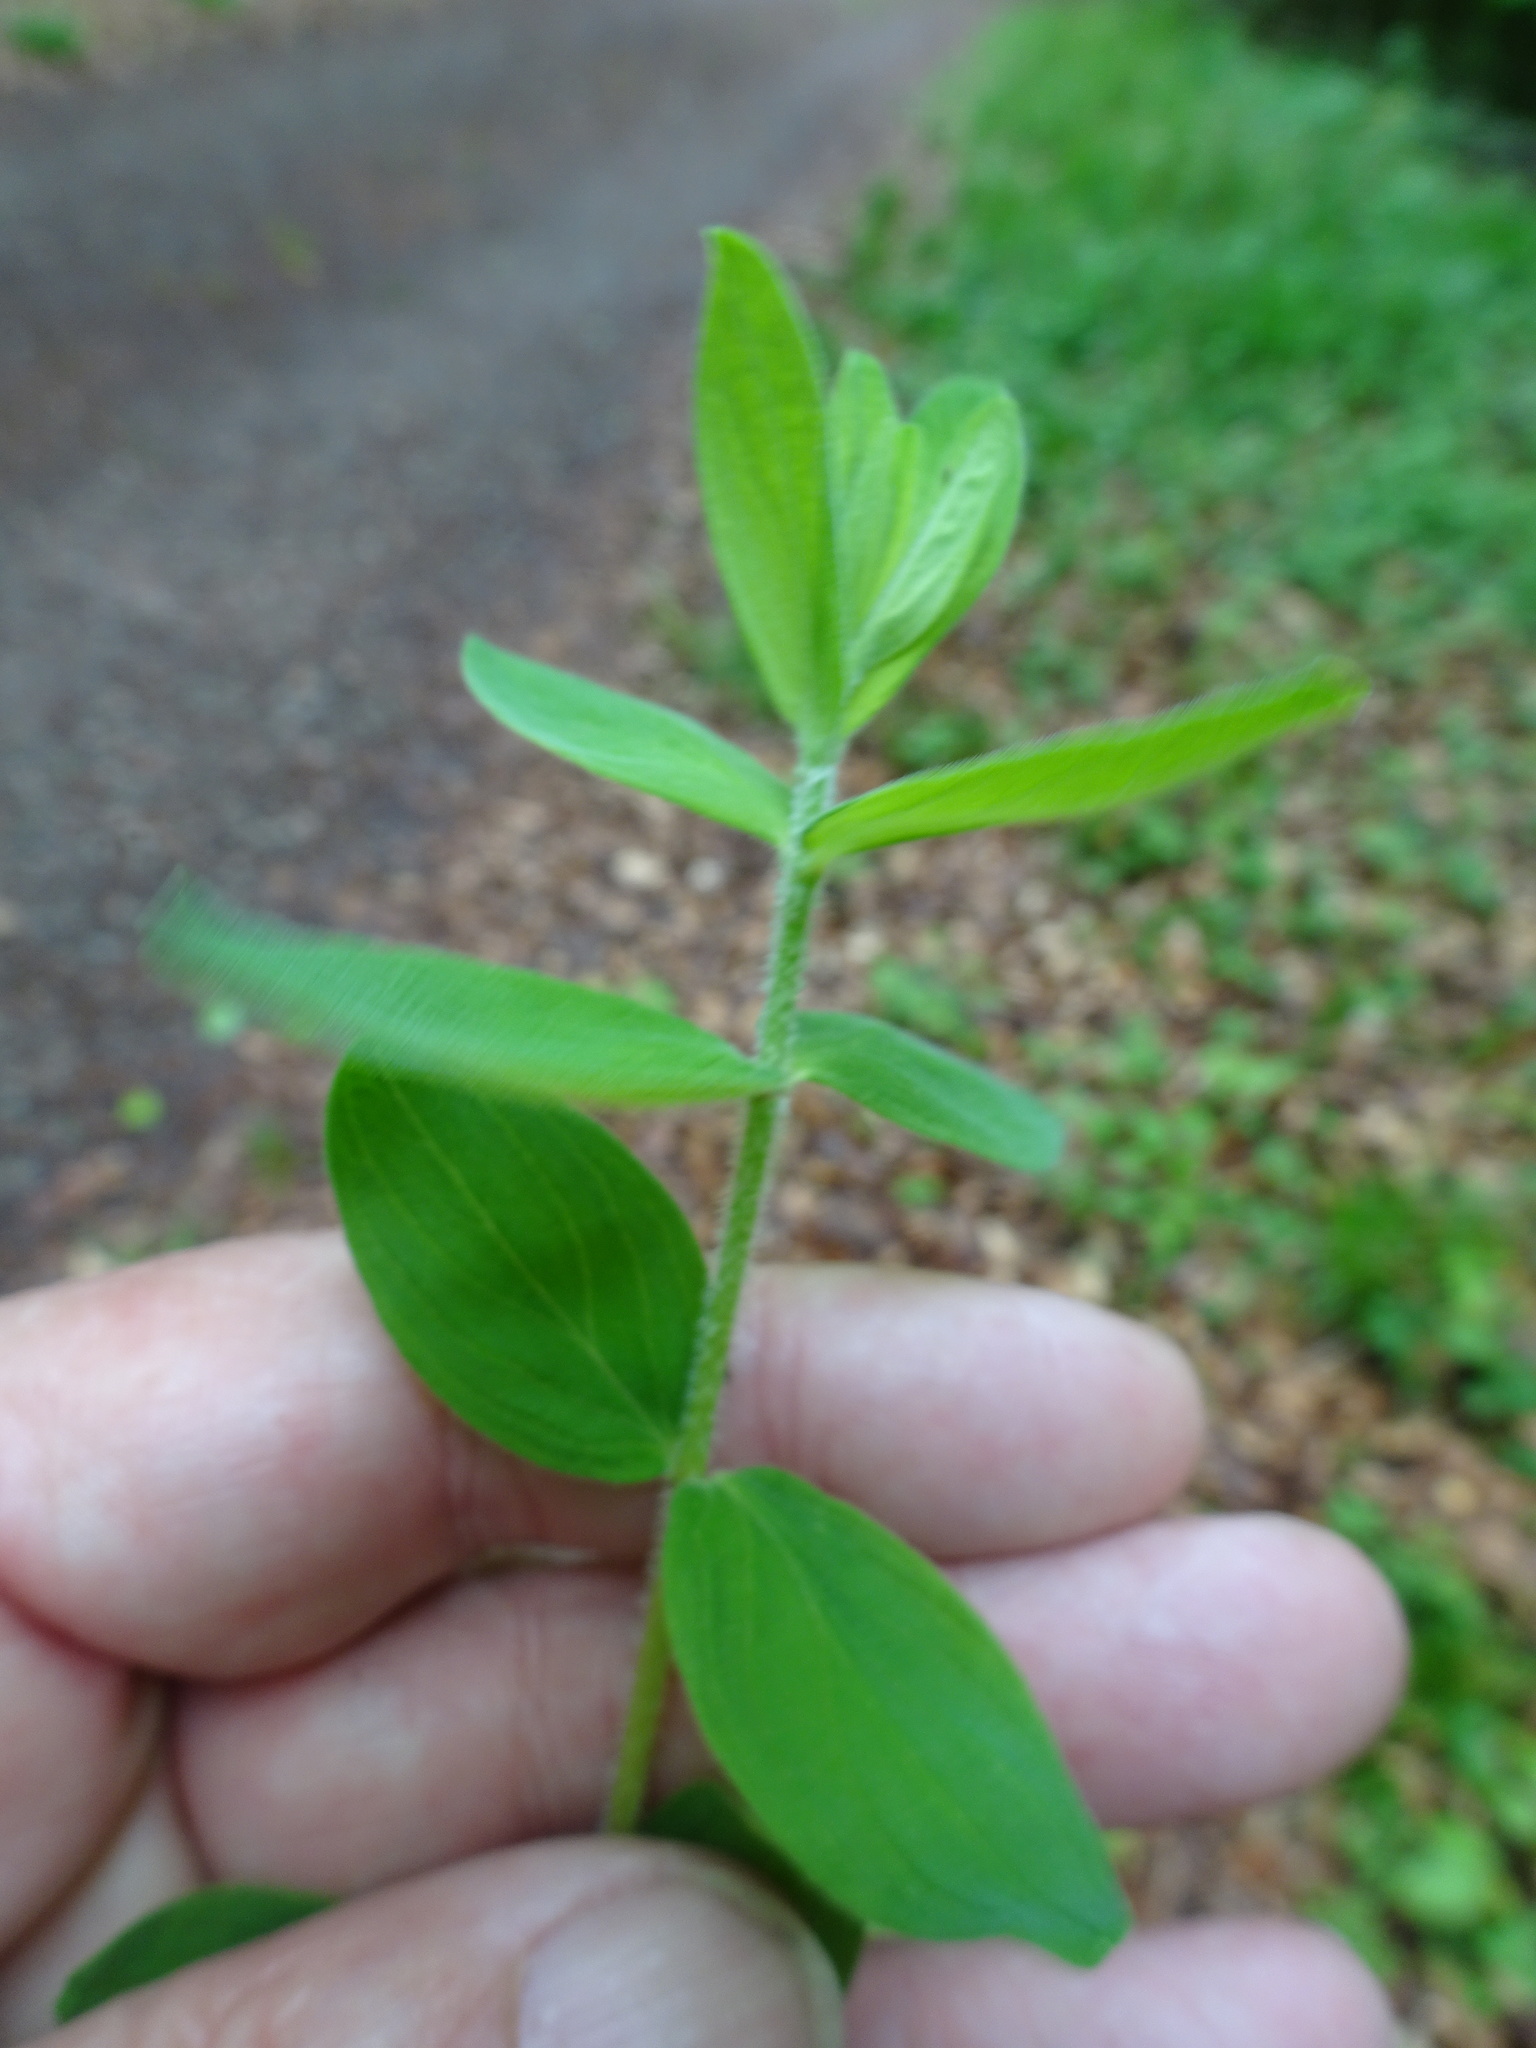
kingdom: Plantae
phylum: Tracheophyta
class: Magnoliopsida
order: Malpighiales
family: Hypericaceae
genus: Hypericum
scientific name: Hypericum hirsutum
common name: Hairy st. john's-wort
